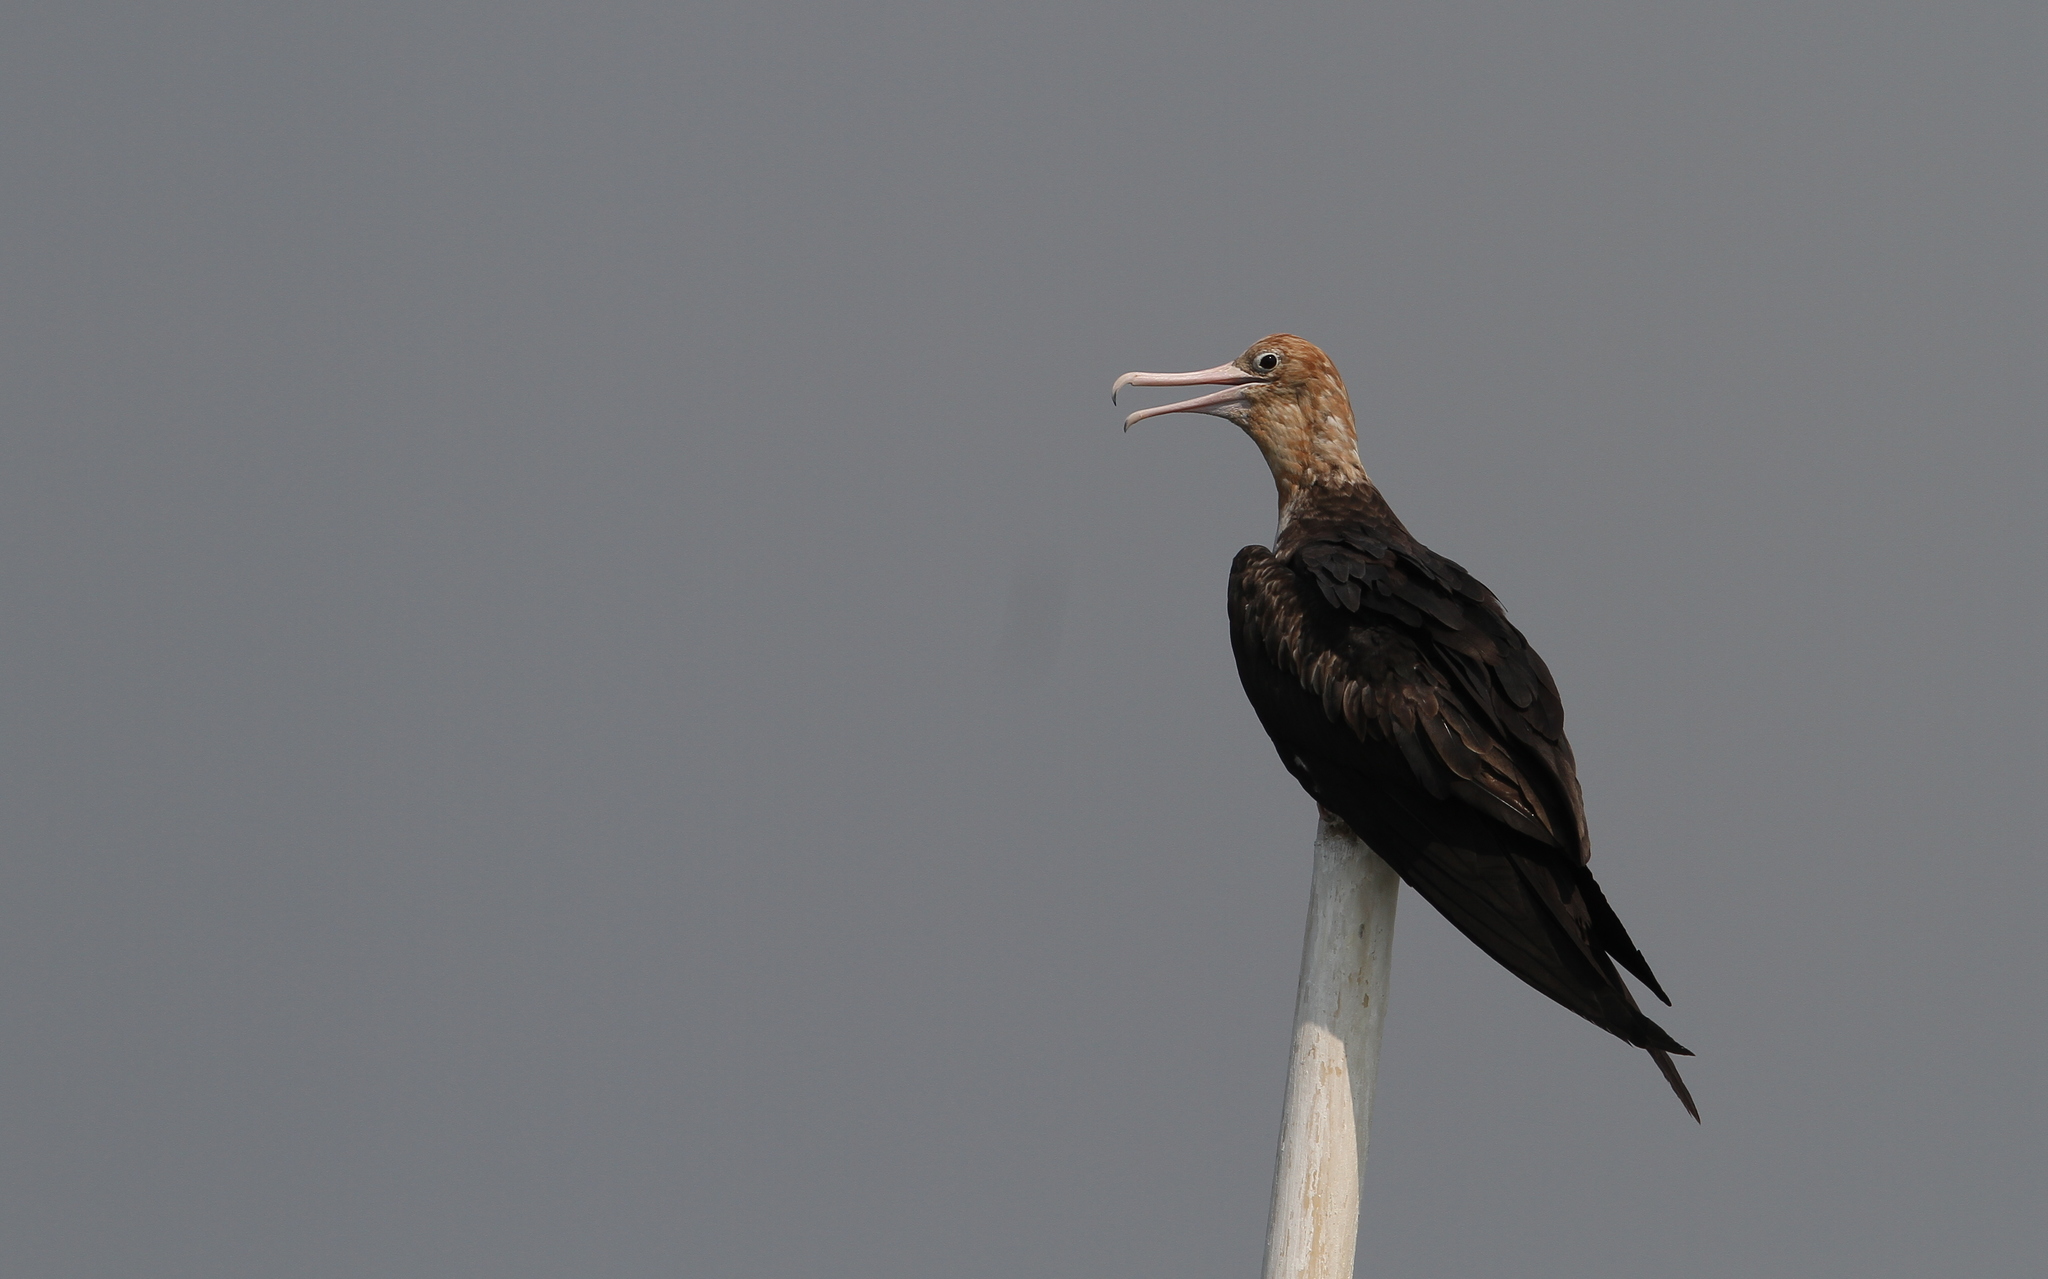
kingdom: Animalia
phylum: Chordata
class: Aves
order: Suliformes
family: Fregatidae
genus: Fregata
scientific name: Fregata andrewsi
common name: Christmas frigatebird
